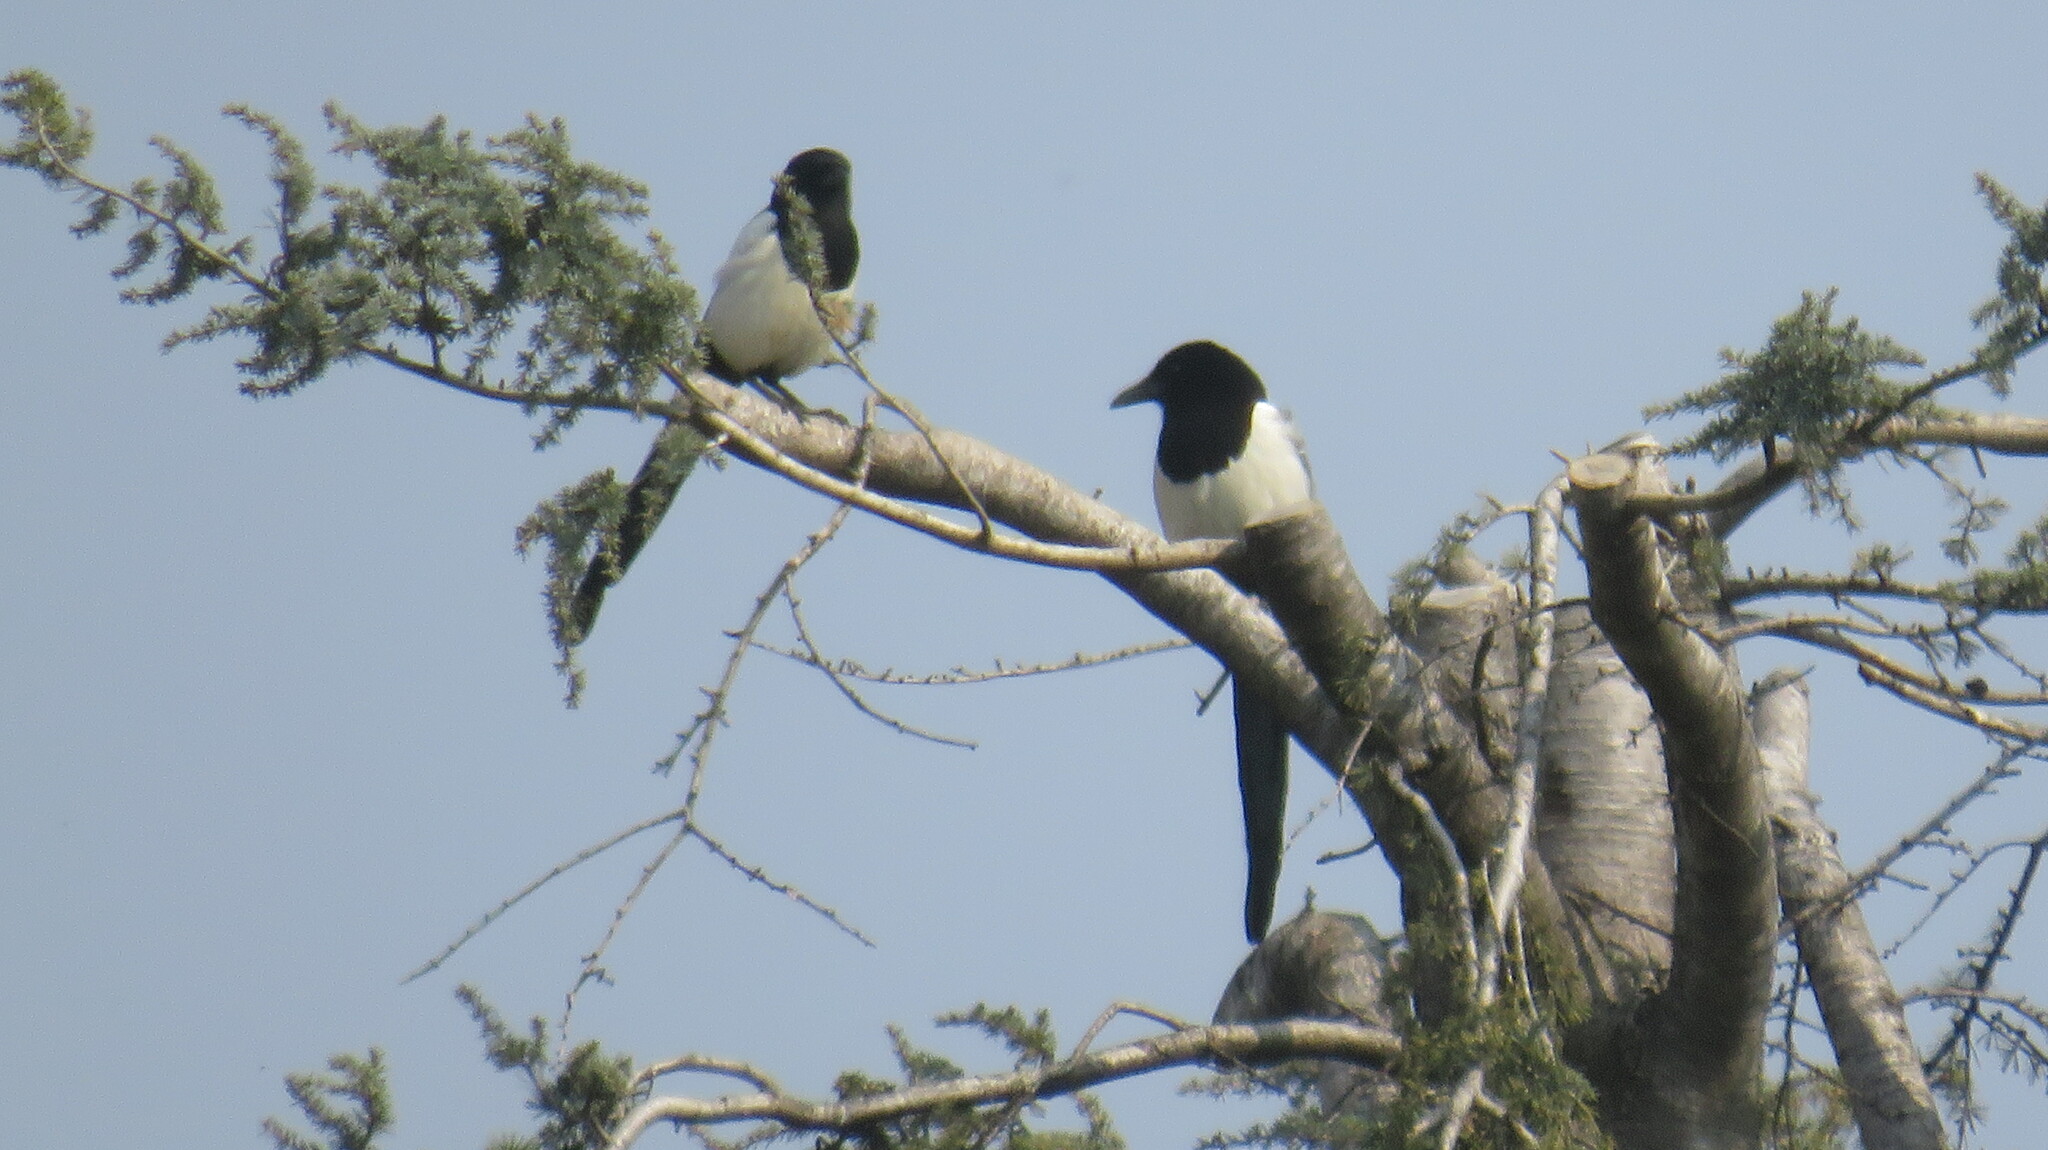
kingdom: Animalia
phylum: Chordata
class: Aves
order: Passeriformes
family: Corvidae
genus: Pica
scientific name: Pica pica
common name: Eurasian magpie
